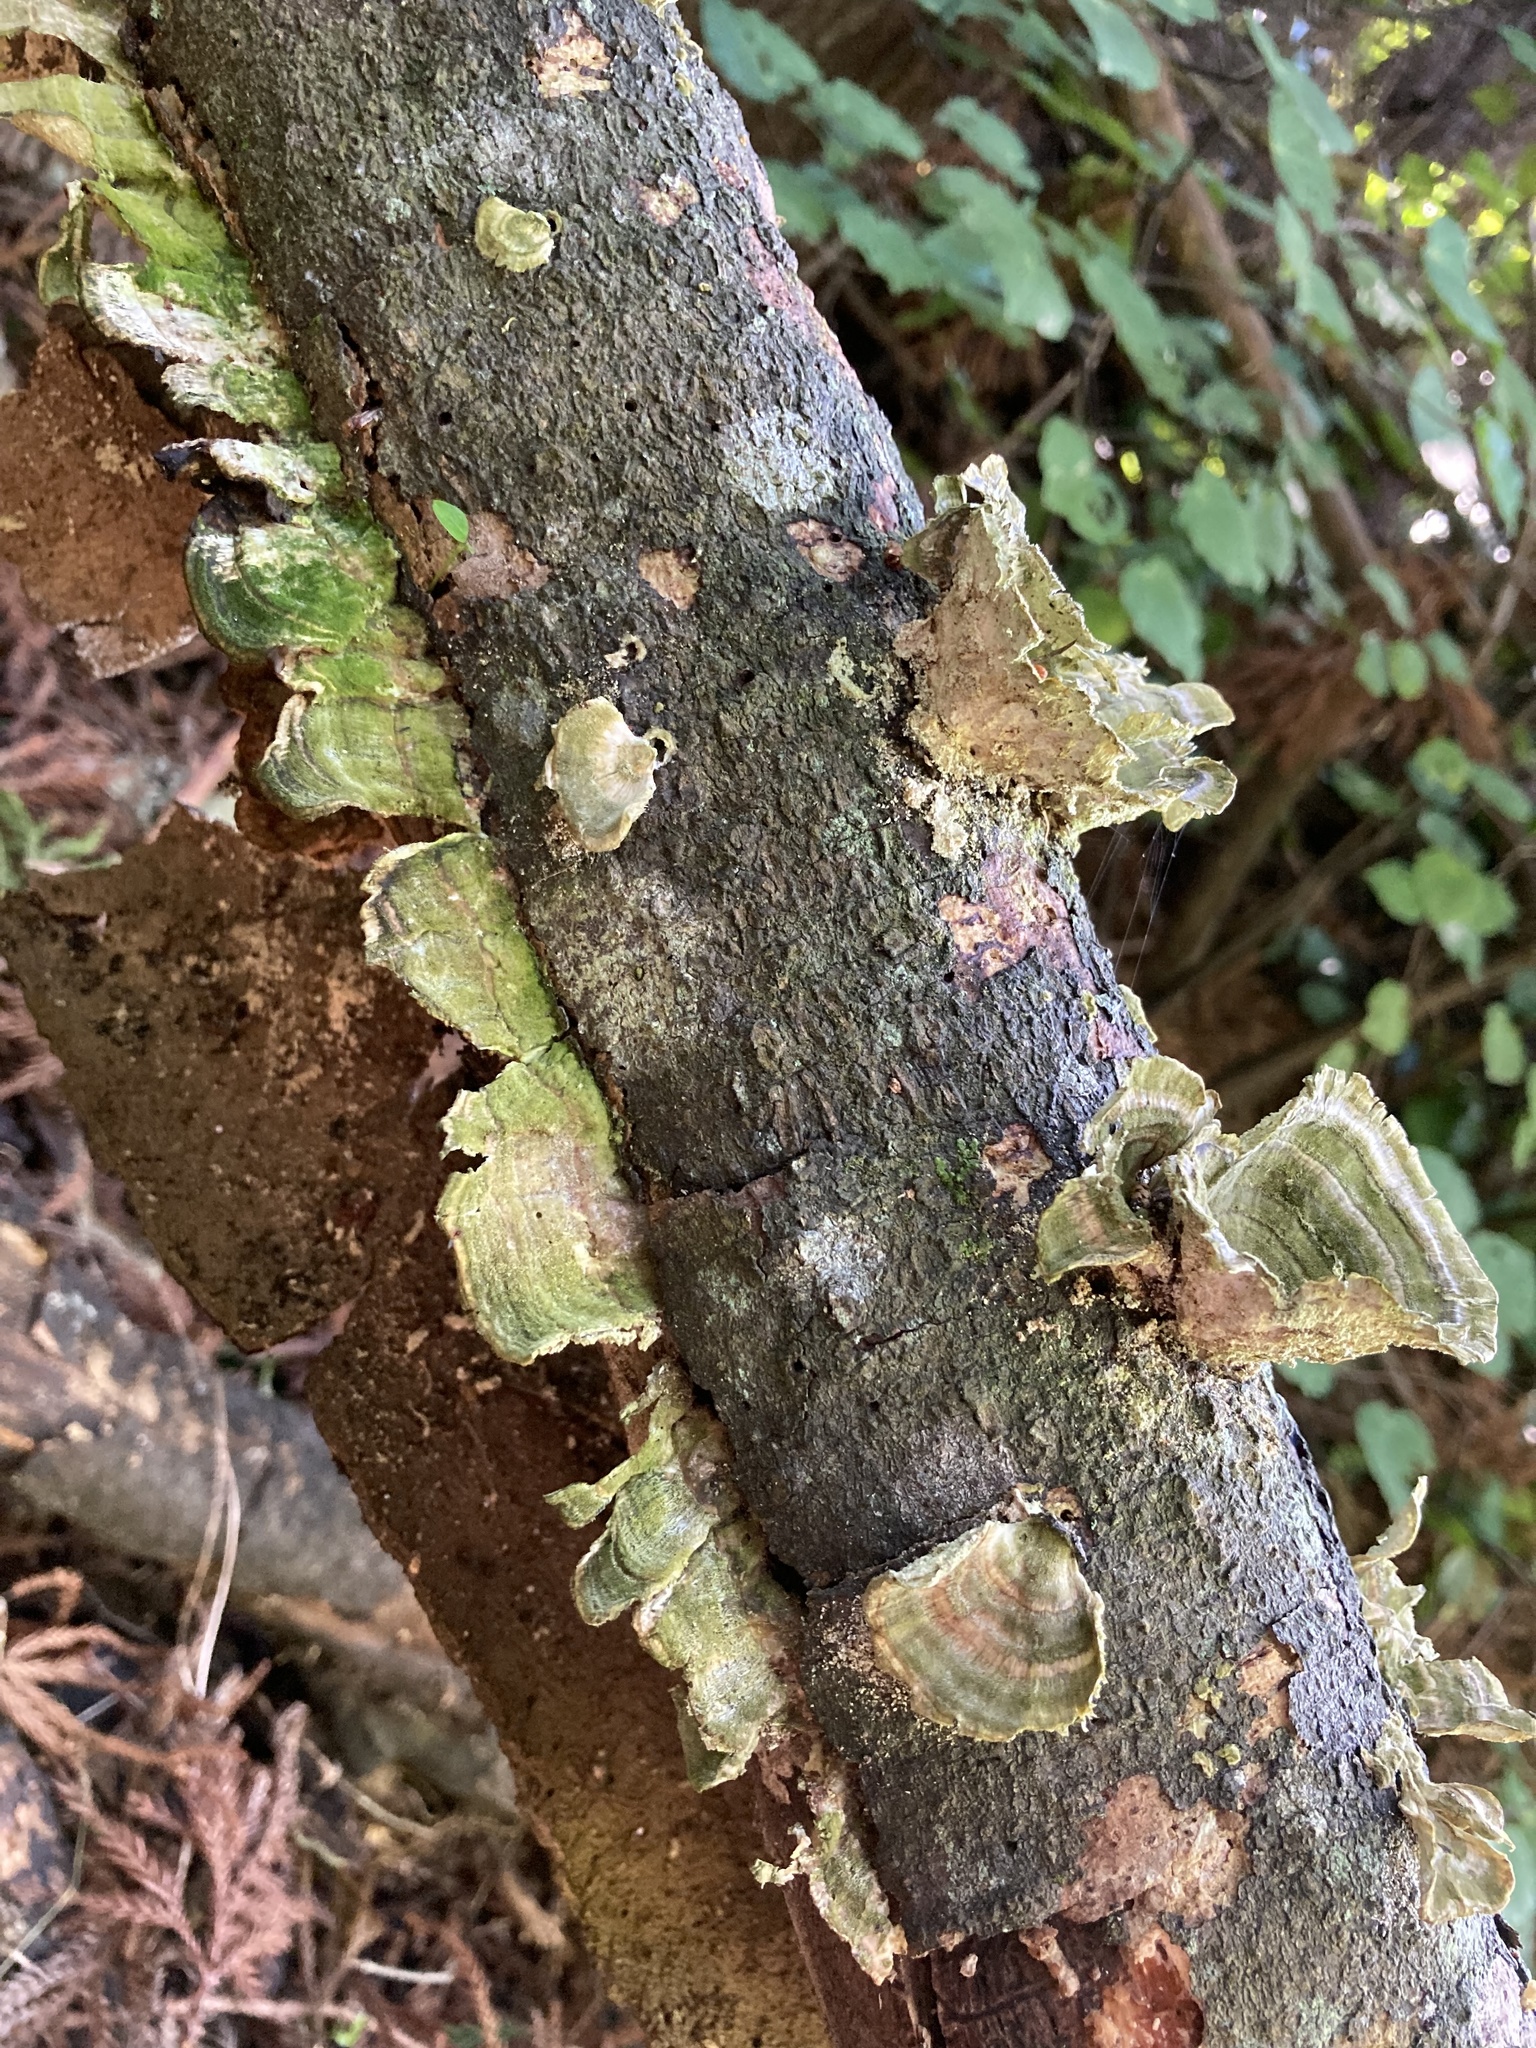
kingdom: Fungi
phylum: Basidiomycota
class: Agaricomycetes
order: Polyporales
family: Polyporaceae
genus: Trametes
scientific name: Trametes hirsuta
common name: Hairy bracket
